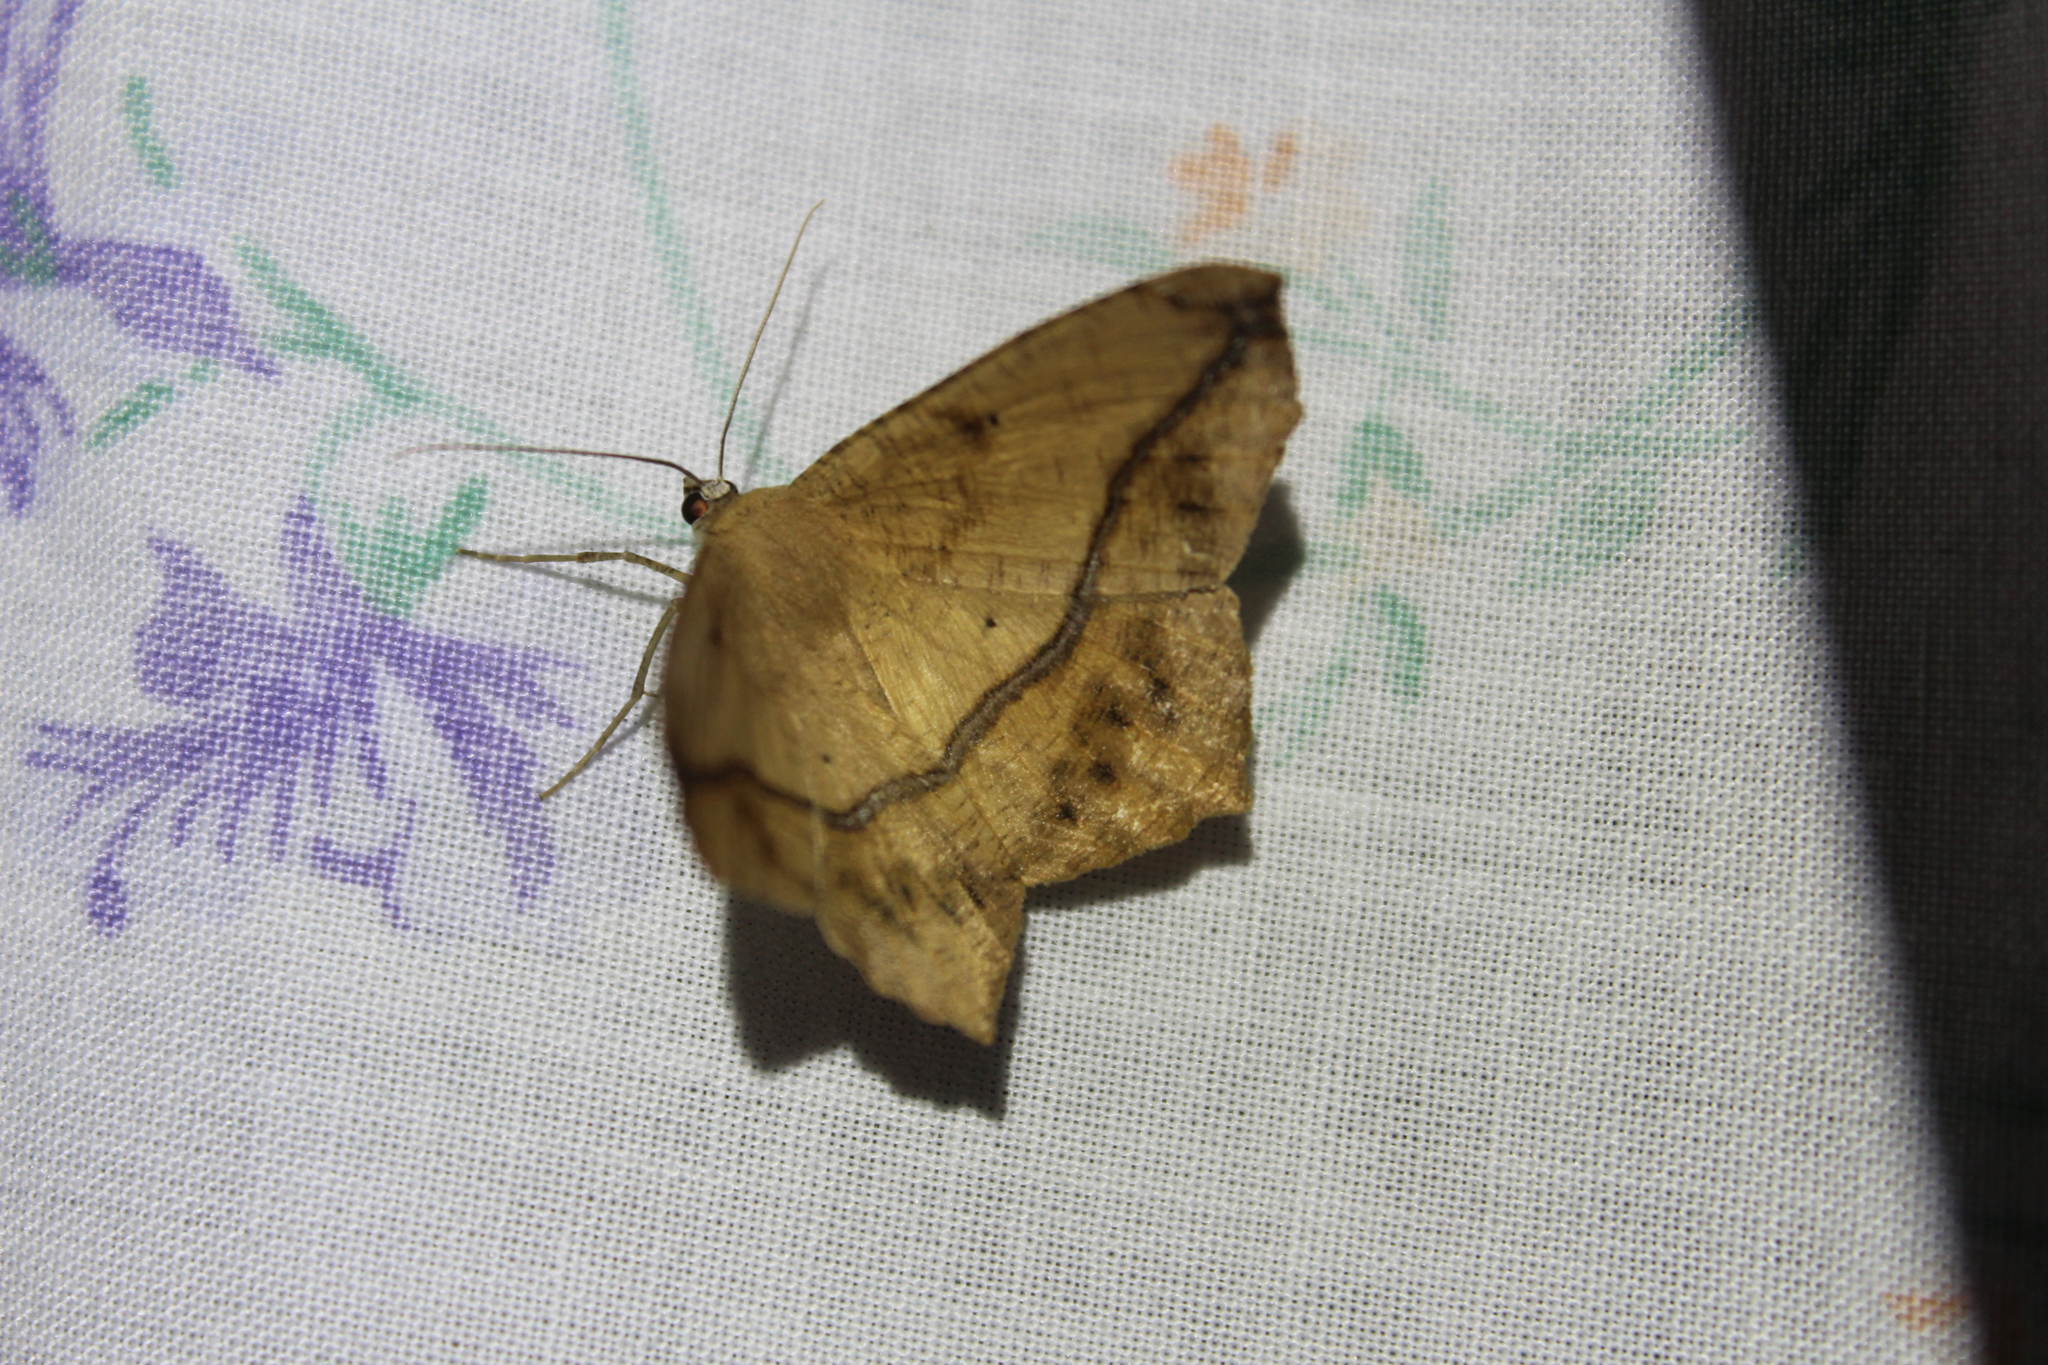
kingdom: Animalia
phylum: Arthropoda
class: Insecta
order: Lepidoptera
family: Geometridae
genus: Prochoerodes
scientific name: Prochoerodes lineola
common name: Large maple spanworm
